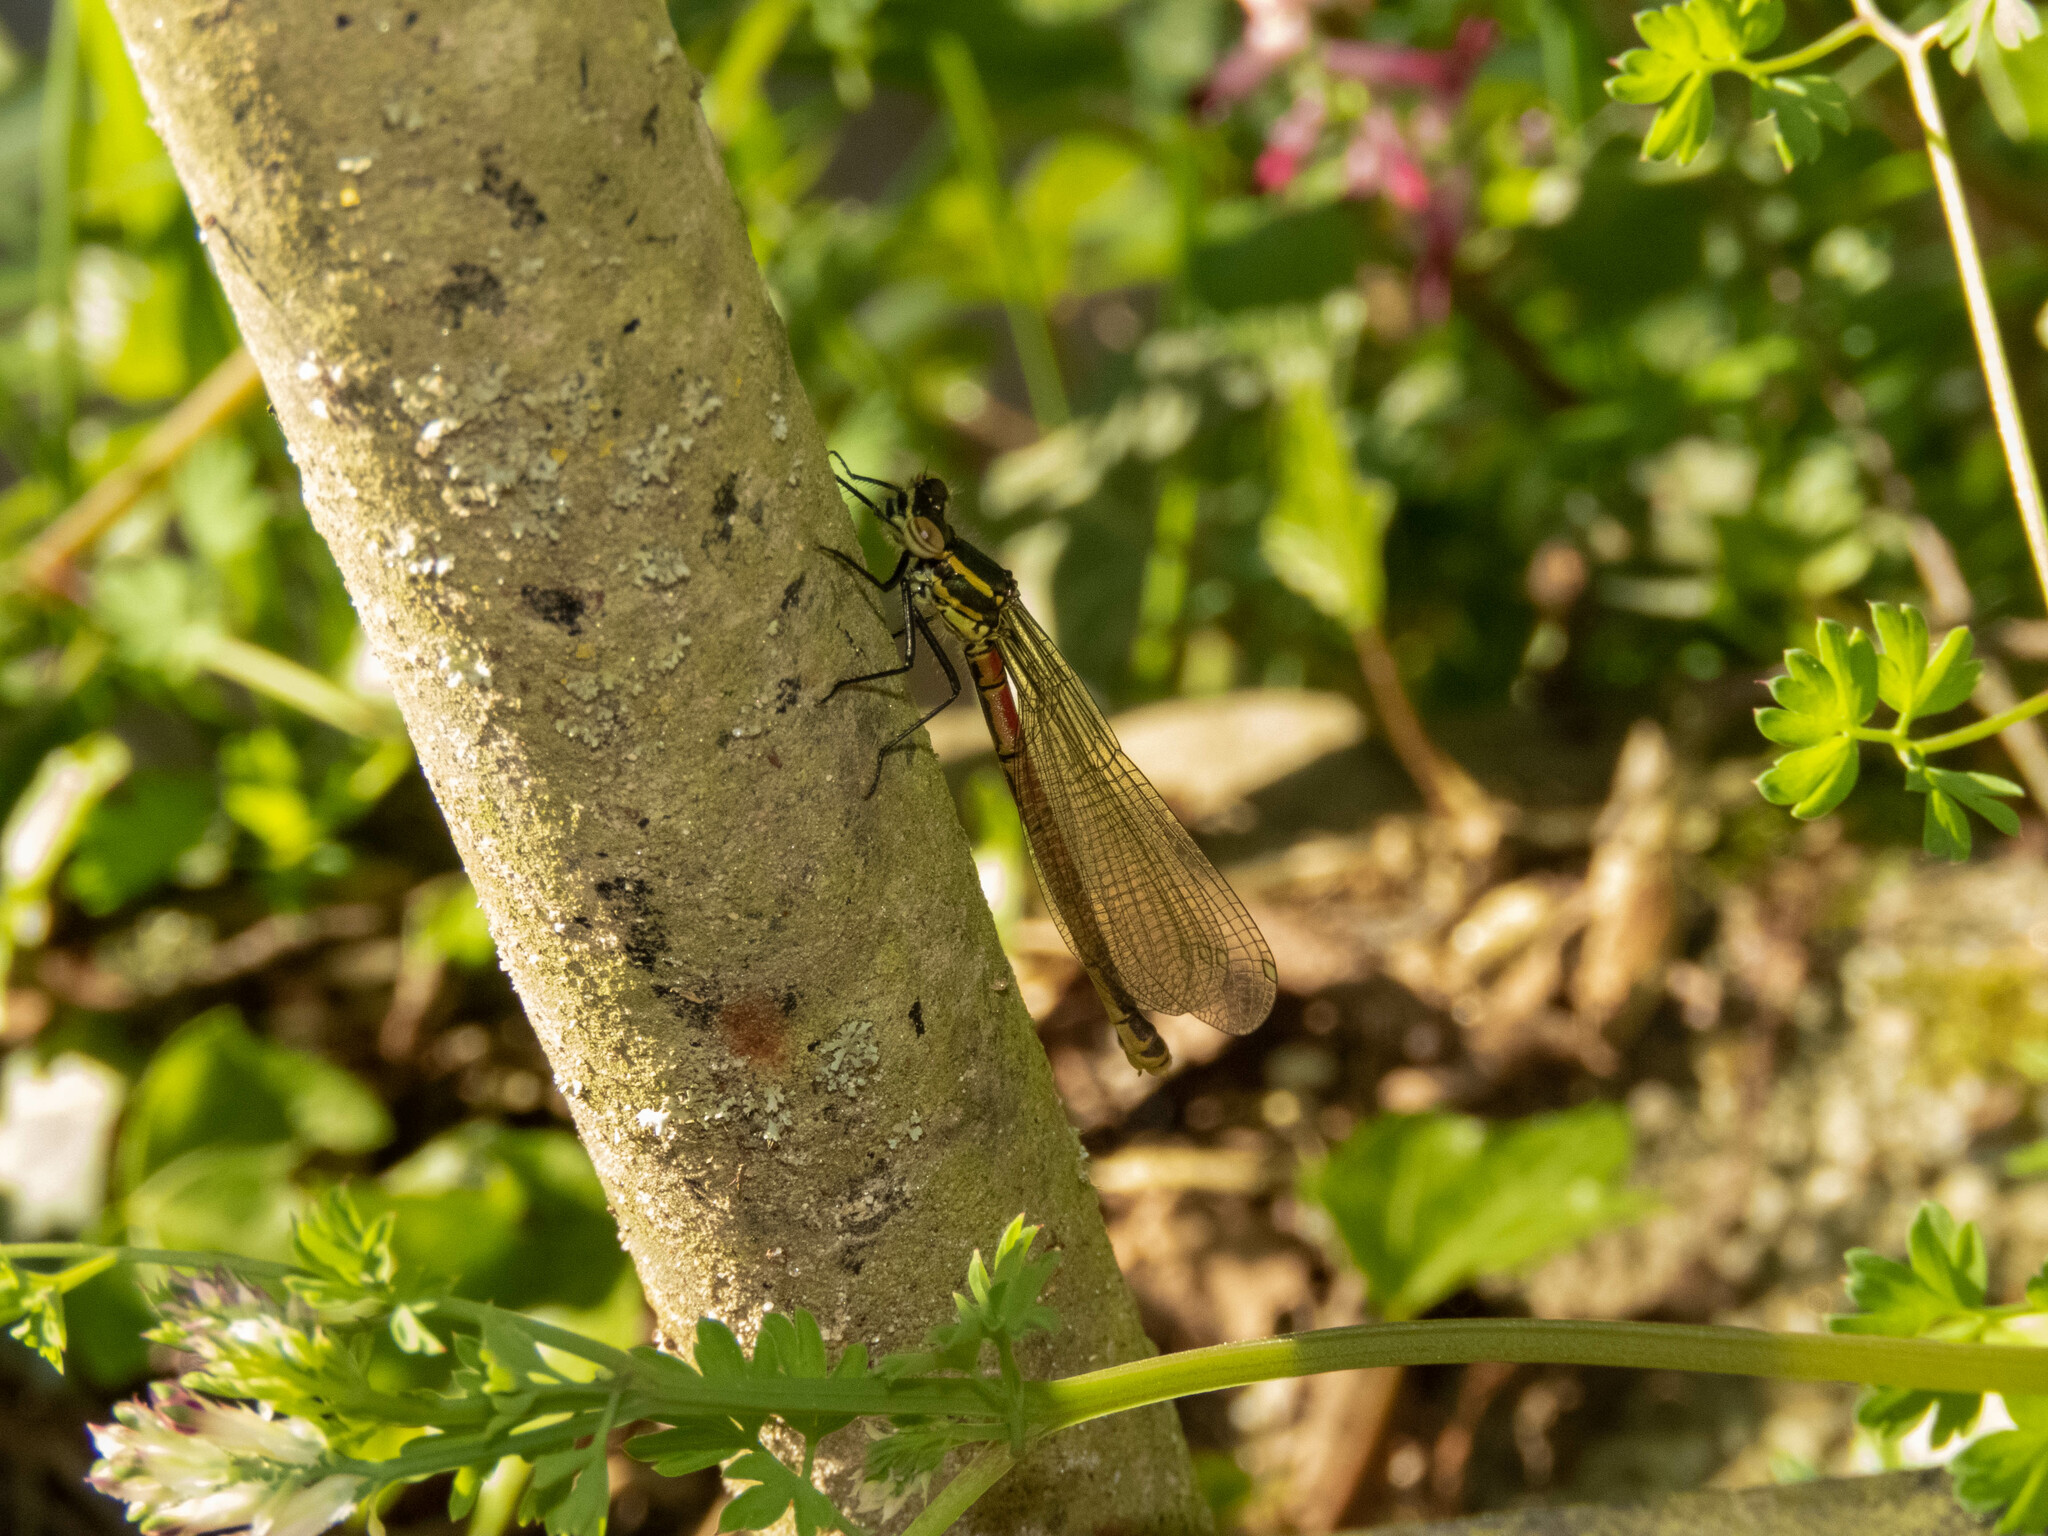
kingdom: Animalia
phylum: Arthropoda
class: Insecta
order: Odonata
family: Coenagrionidae
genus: Pyrrhosoma
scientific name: Pyrrhosoma nymphula
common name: Large red damsel
